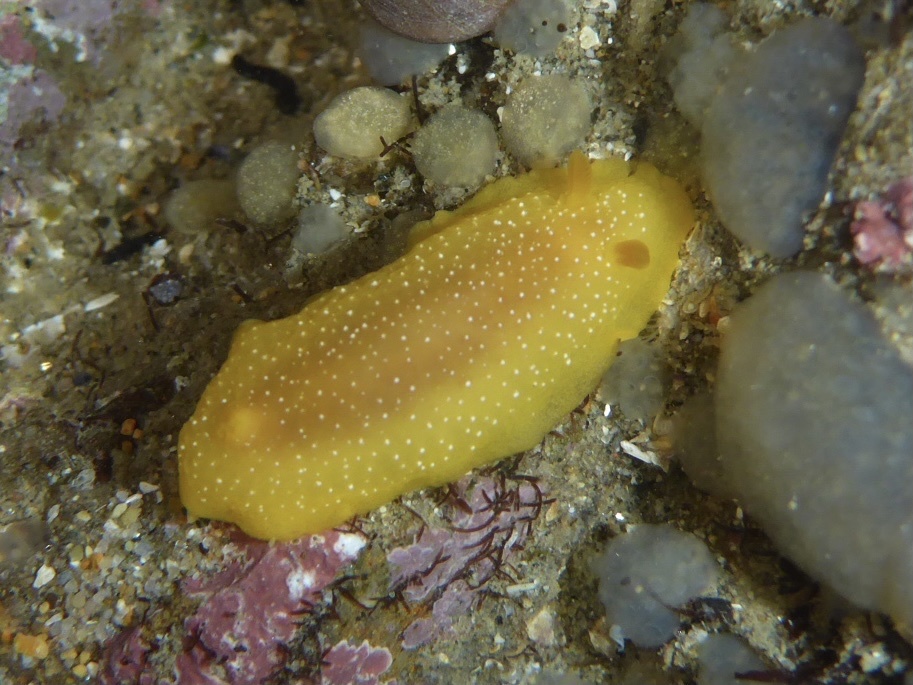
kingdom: Animalia
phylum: Mollusca
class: Gastropoda
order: Nudibranchia
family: Dendrodorididae
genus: Doriopsilla
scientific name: Doriopsilla fulva
